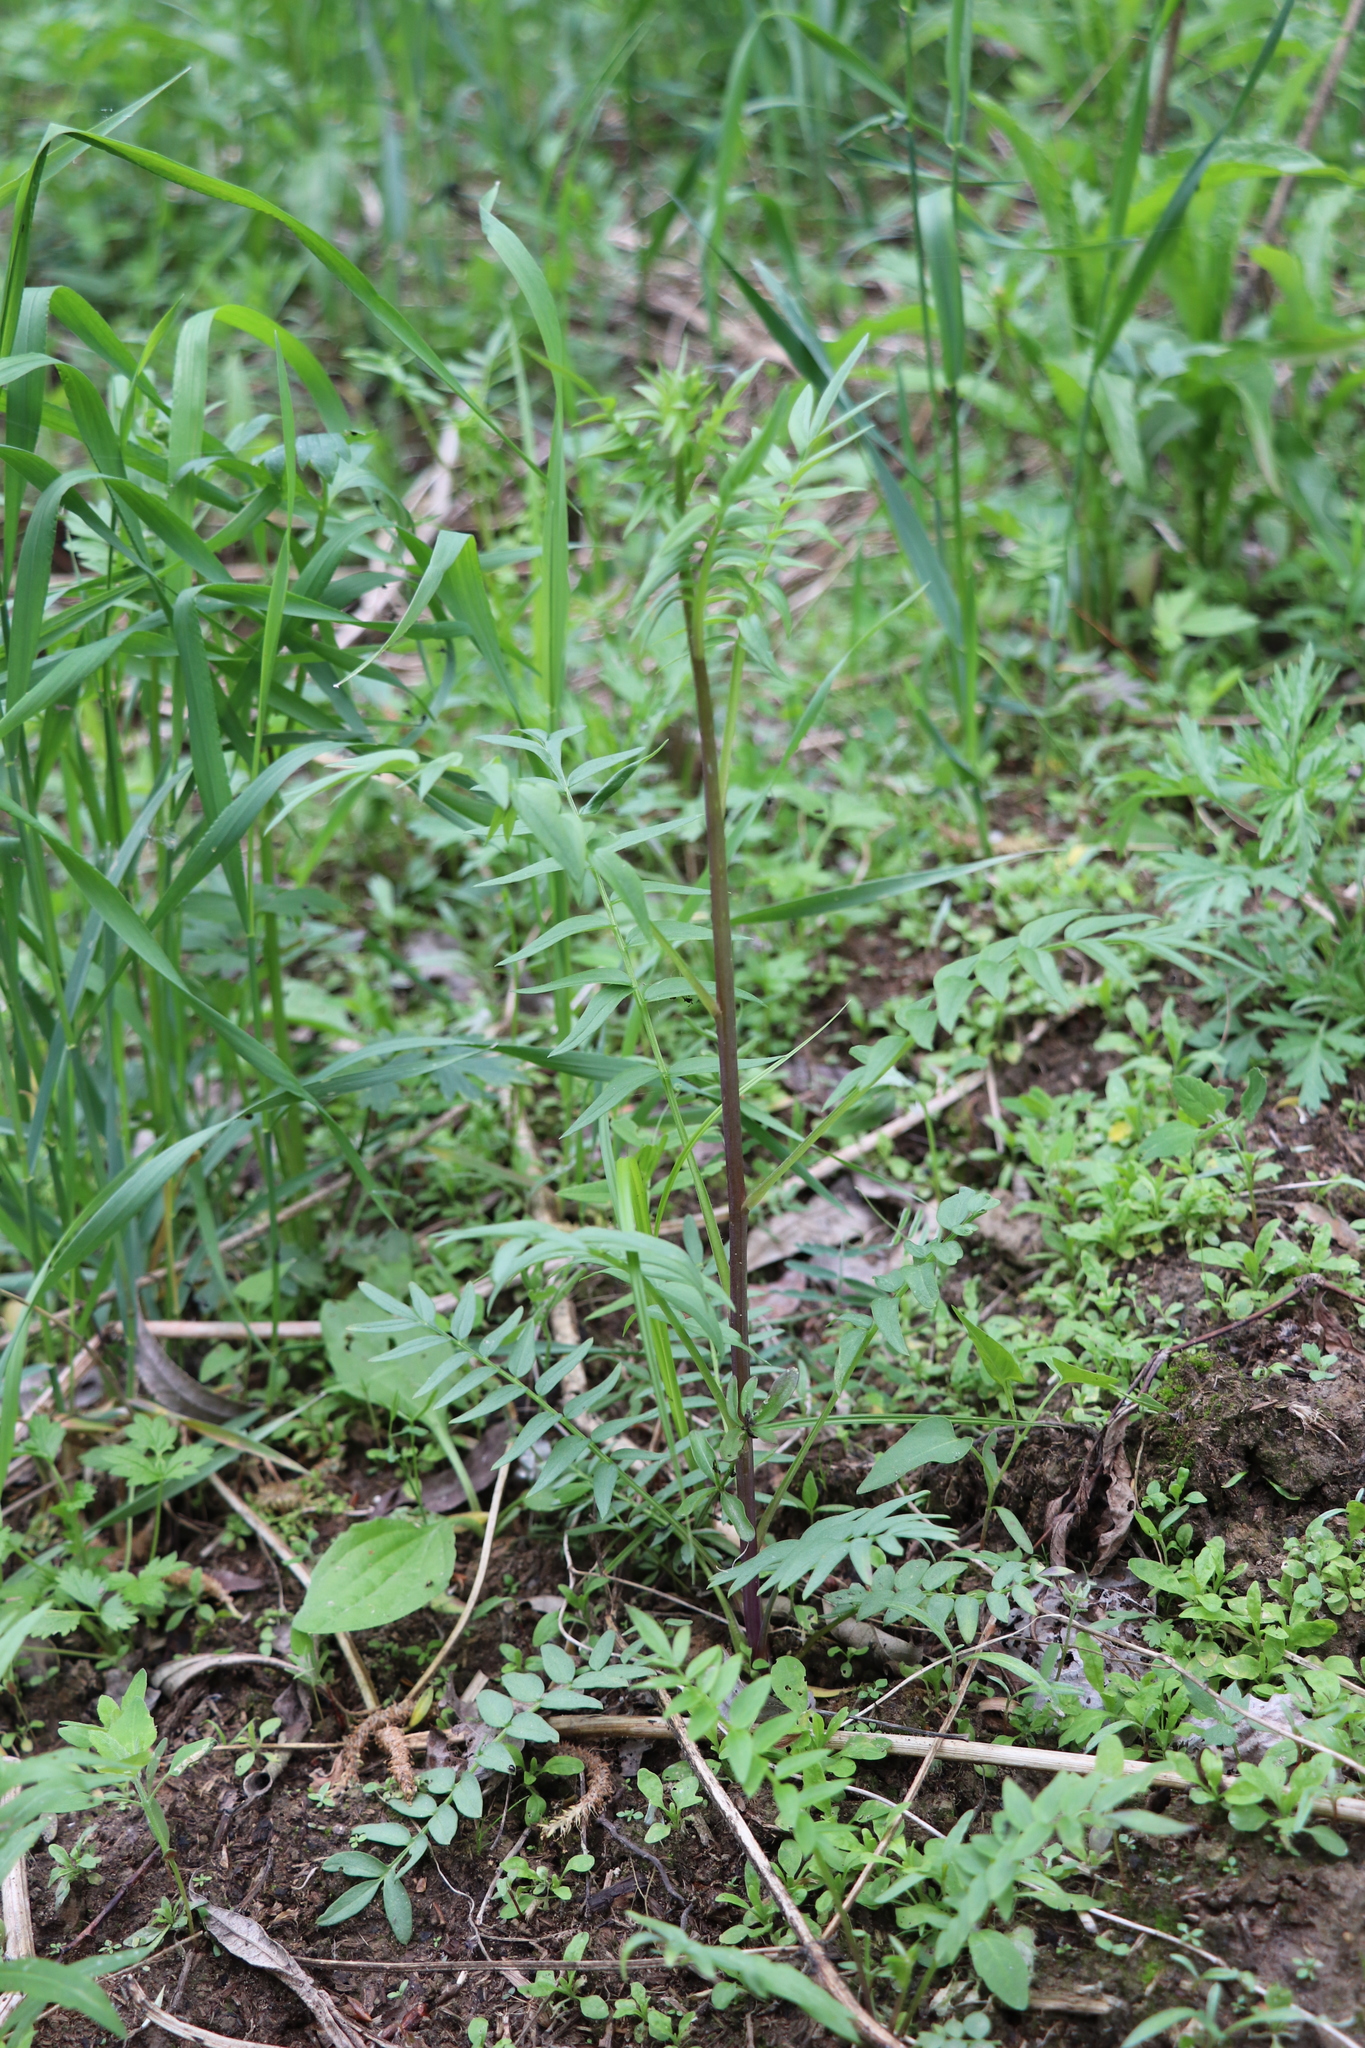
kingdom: Plantae
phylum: Tracheophyta
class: Magnoliopsida
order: Ericales
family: Polemoniaceae
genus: Polemonium
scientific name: Polemonium caeruleum
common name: Jacob's-ladder
